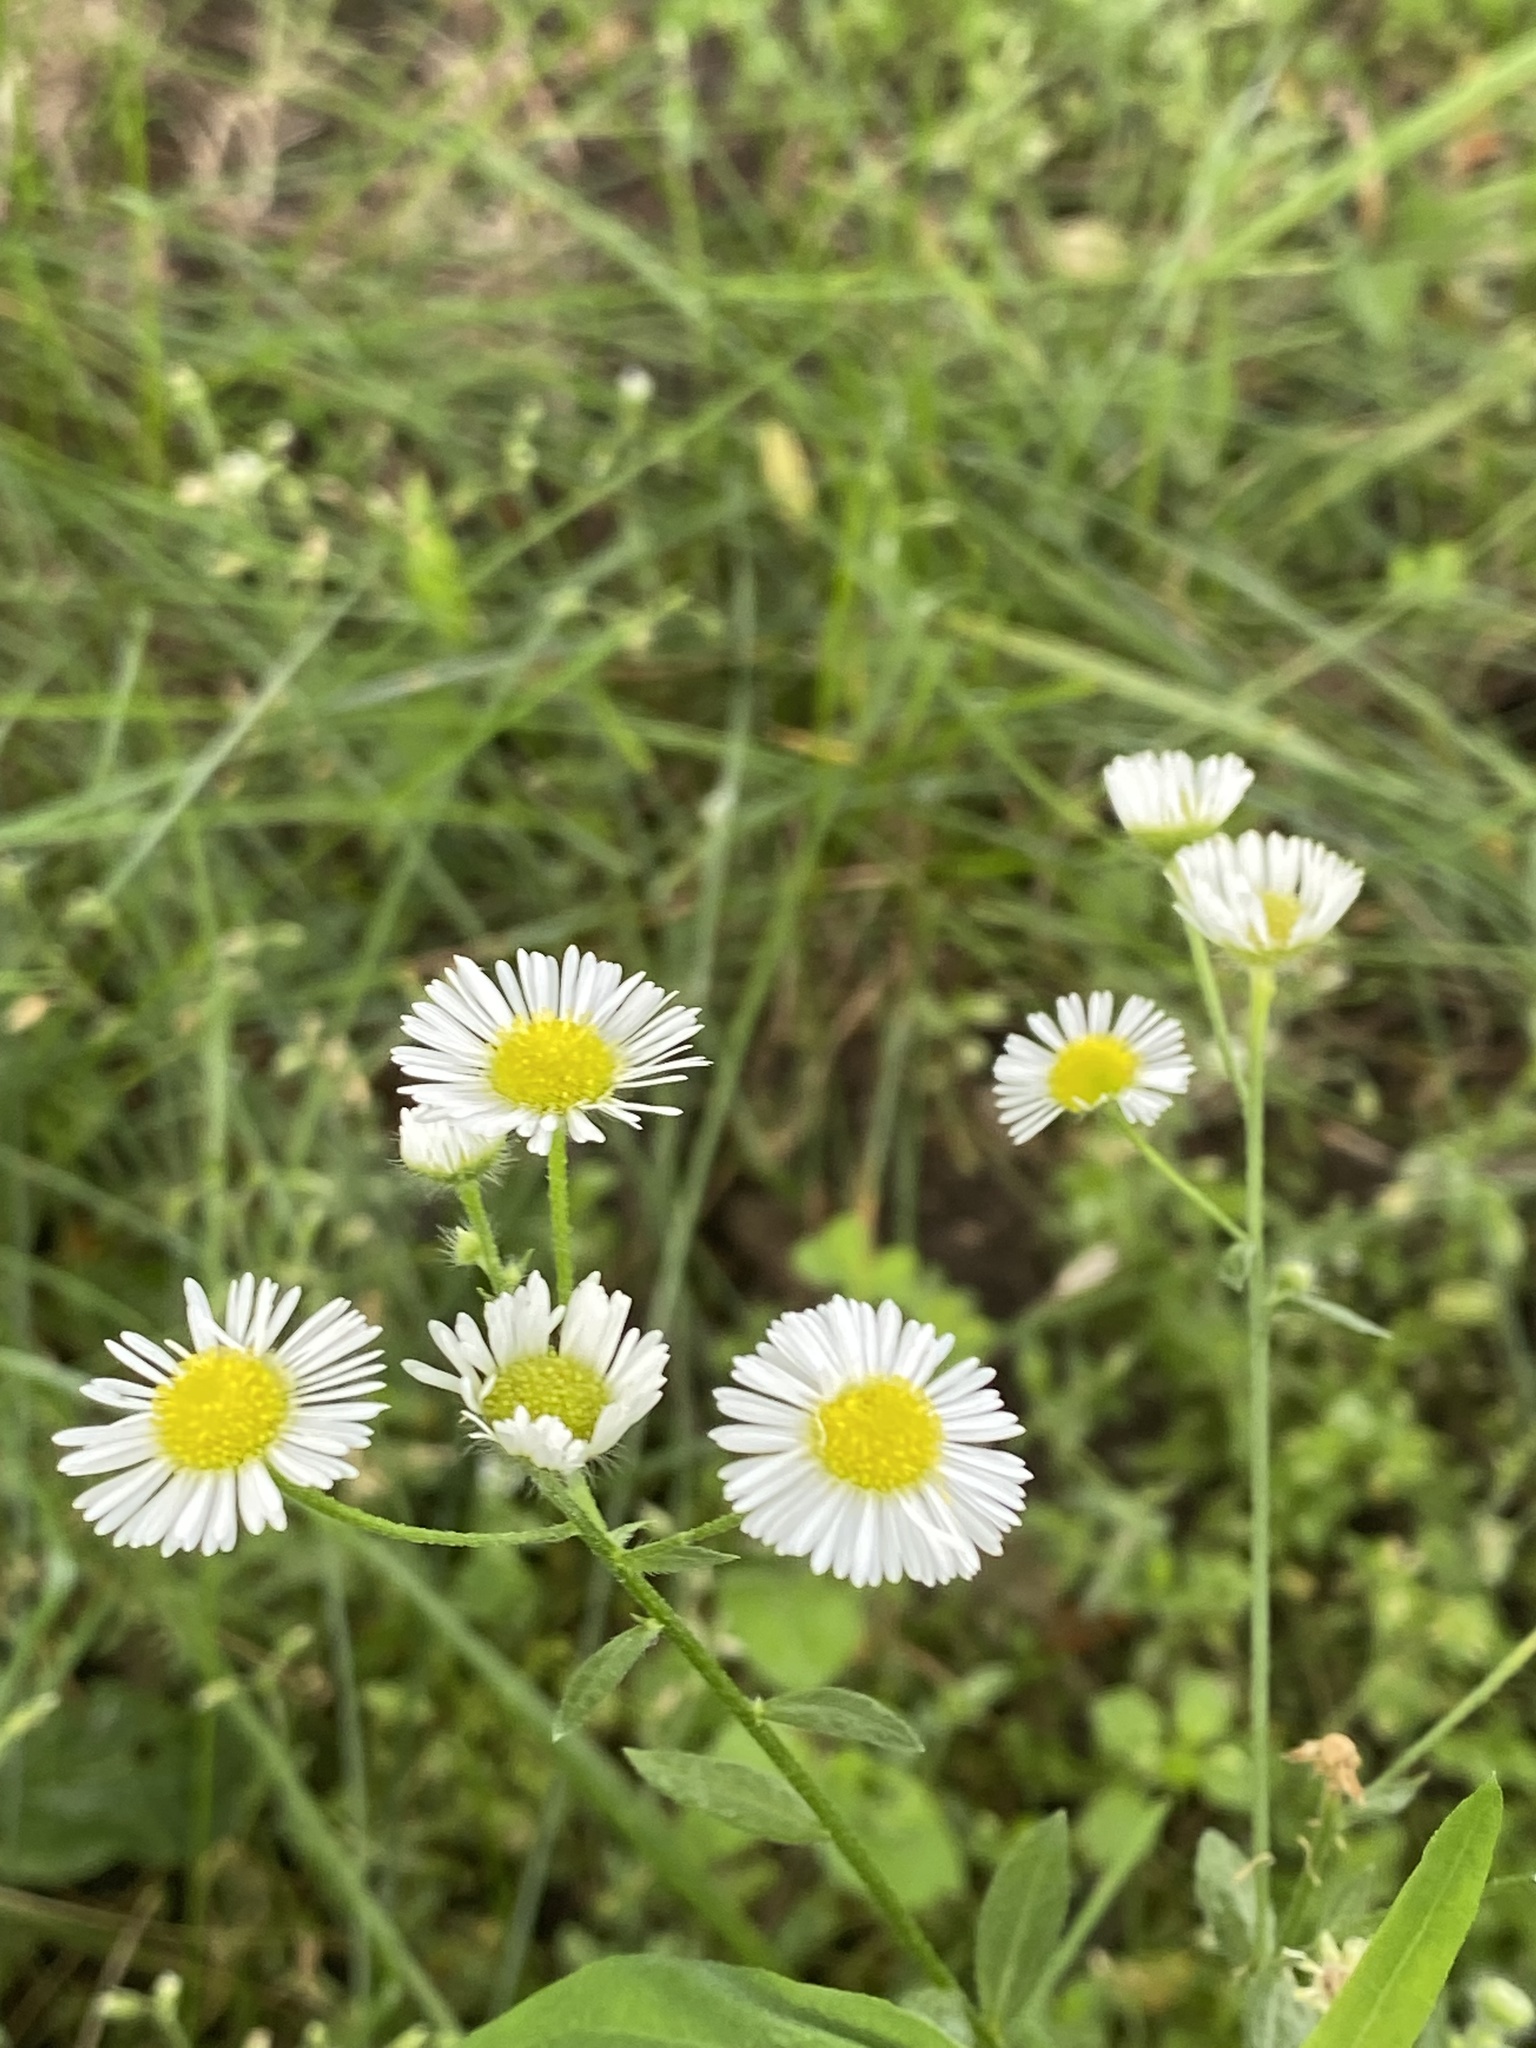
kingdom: Plantae
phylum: Tracheophyta
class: Magnoliopsida
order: Asterales
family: Asteraceae
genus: Erigeron
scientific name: Erigeron strigosus
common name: Common eastern fleabane
